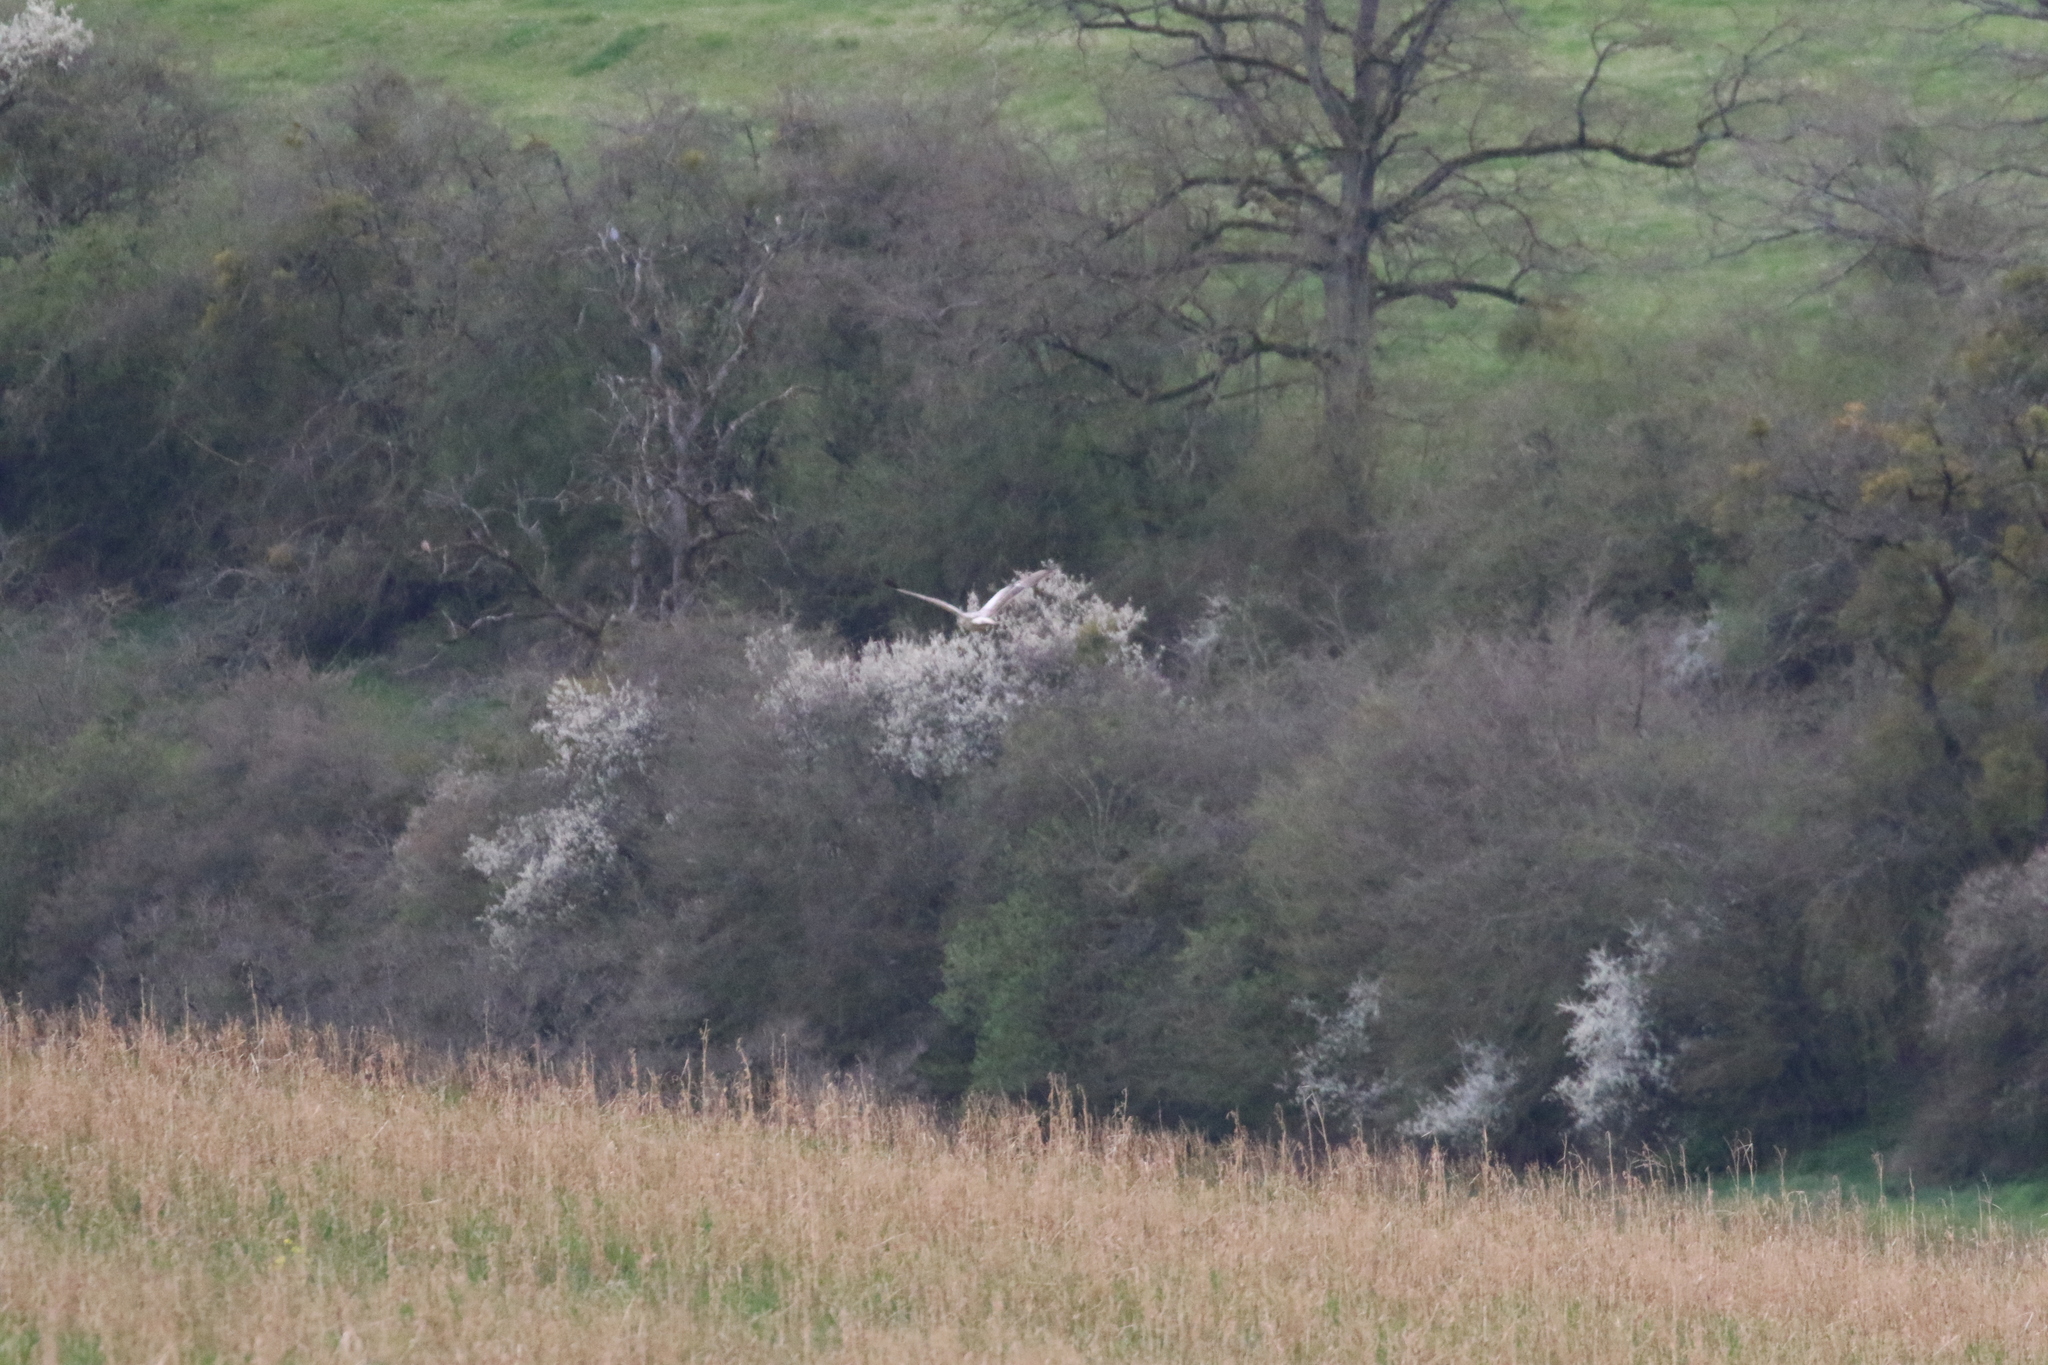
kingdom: Animalia
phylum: Chordata
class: Aves
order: Accipitriformes
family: Accipitridae
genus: Buteo
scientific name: Buteo buteo
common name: Common buzzard
